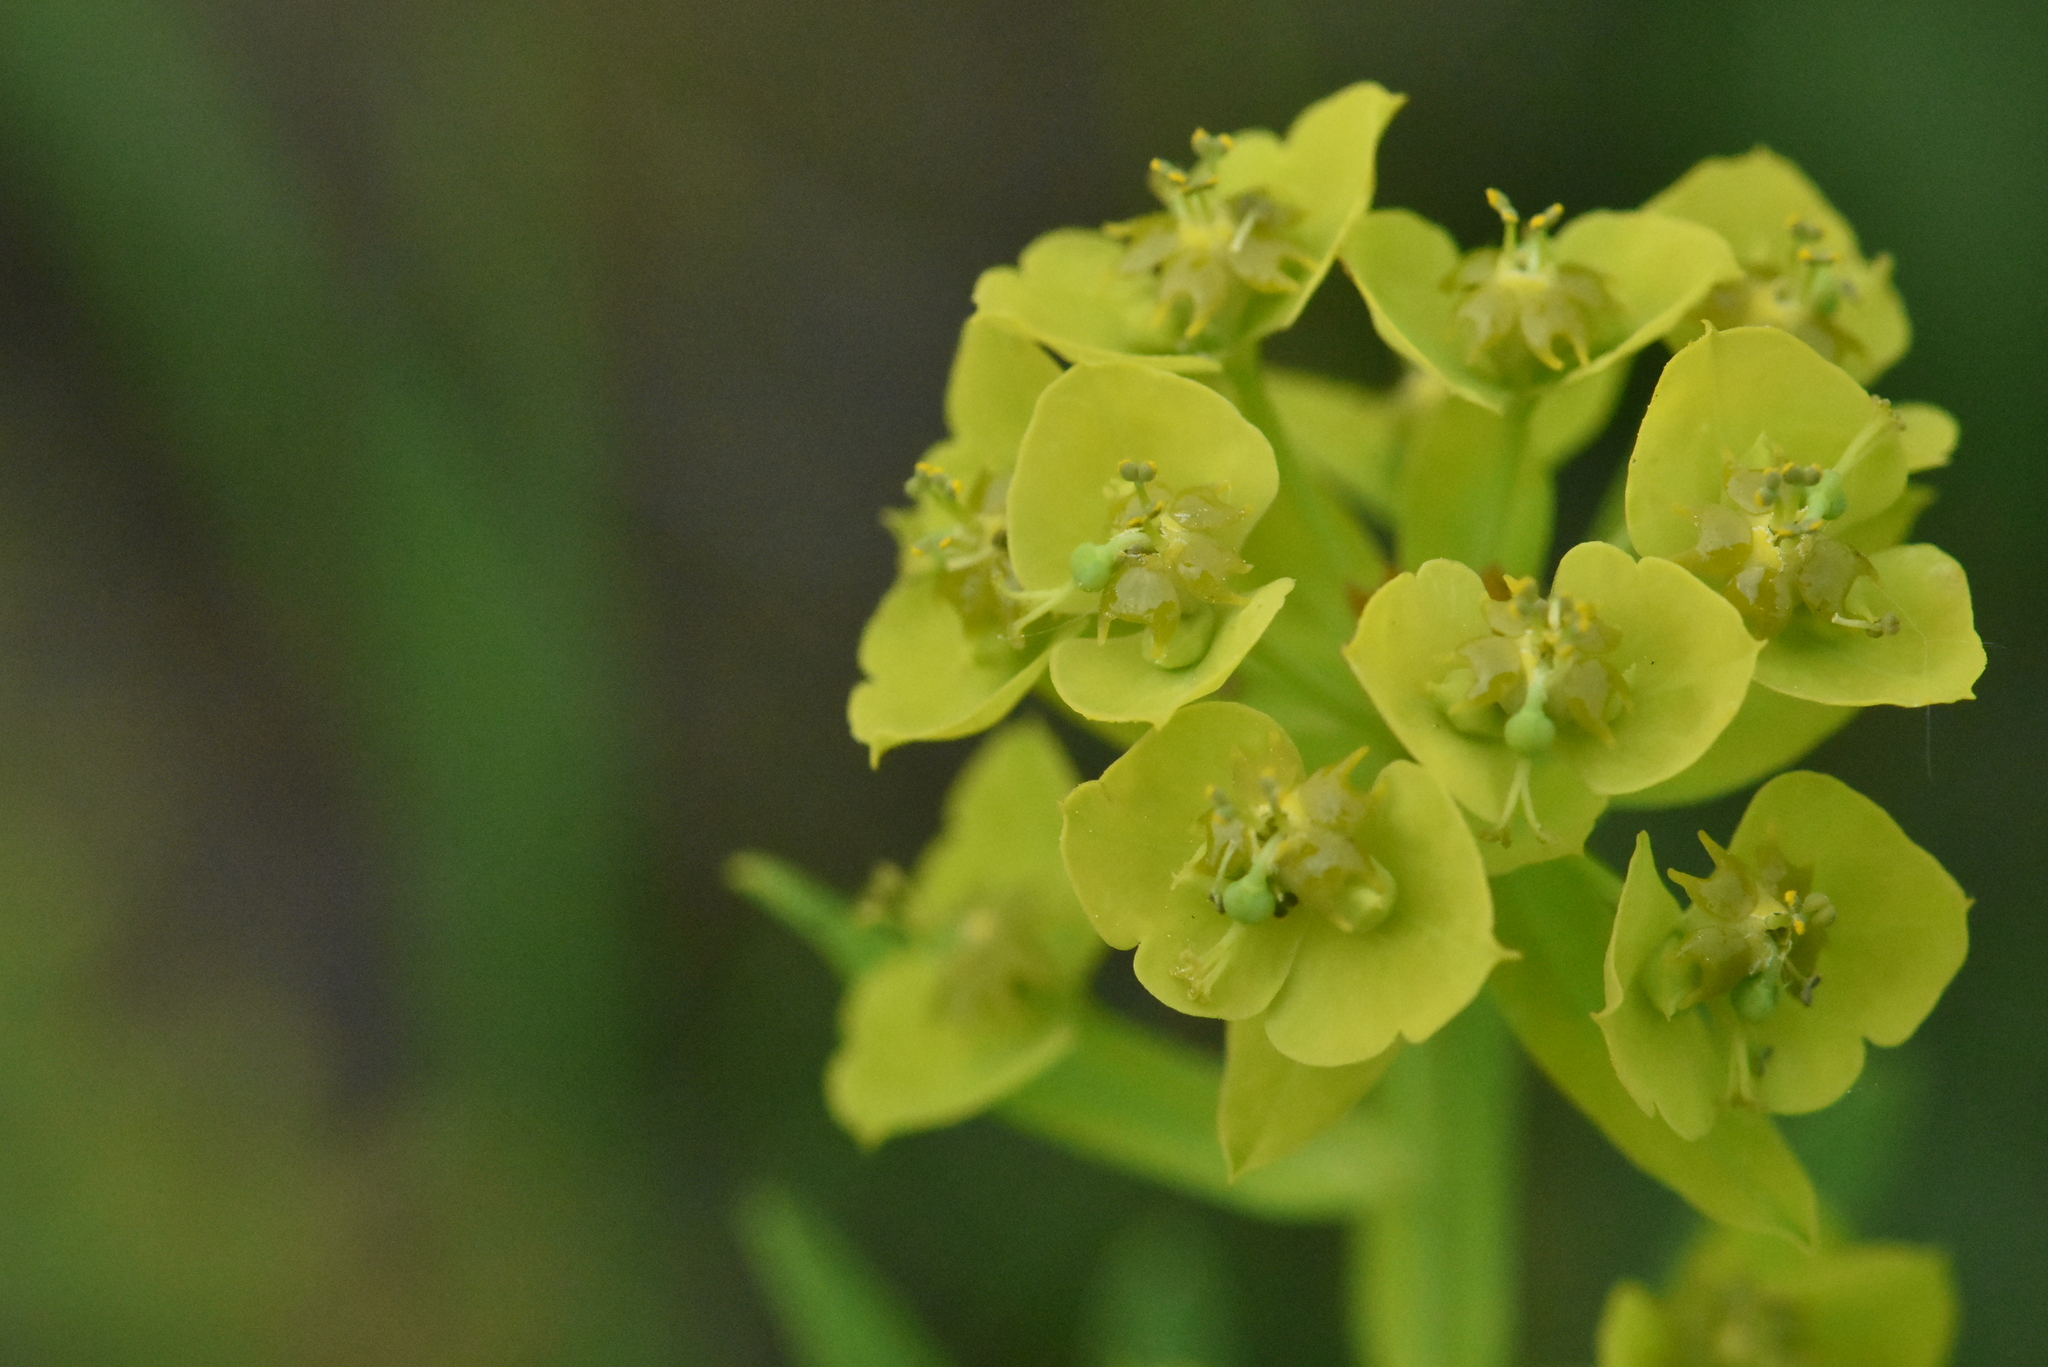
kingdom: Plantae
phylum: Tracheophyta
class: Magnoliopsida
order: Malpighiales
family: Euphorbiaceae
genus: Euphorbia
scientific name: Euphorbia virgata
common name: Leafy spurge
